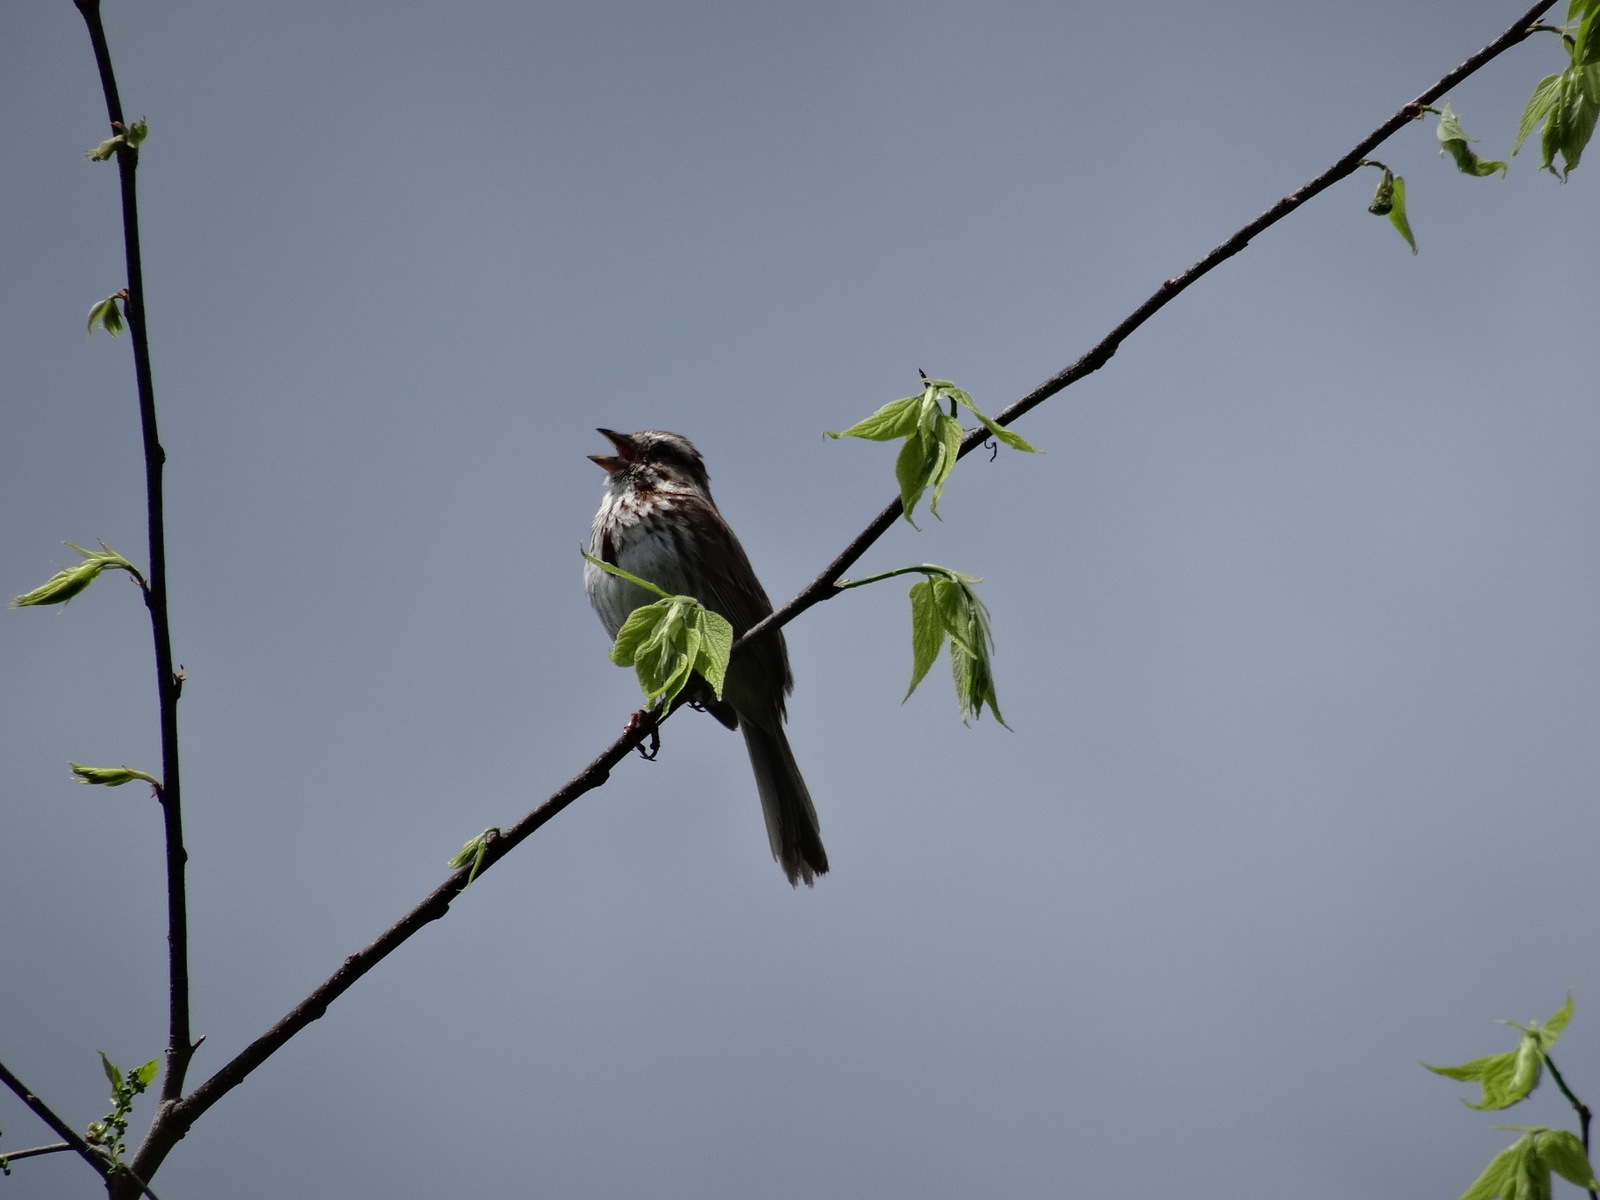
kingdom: Animalia
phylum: Chordata
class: Aves
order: Passeriformes
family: Passerellidae
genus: Melospiza
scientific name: Melospiza melodia
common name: Song sparrow
